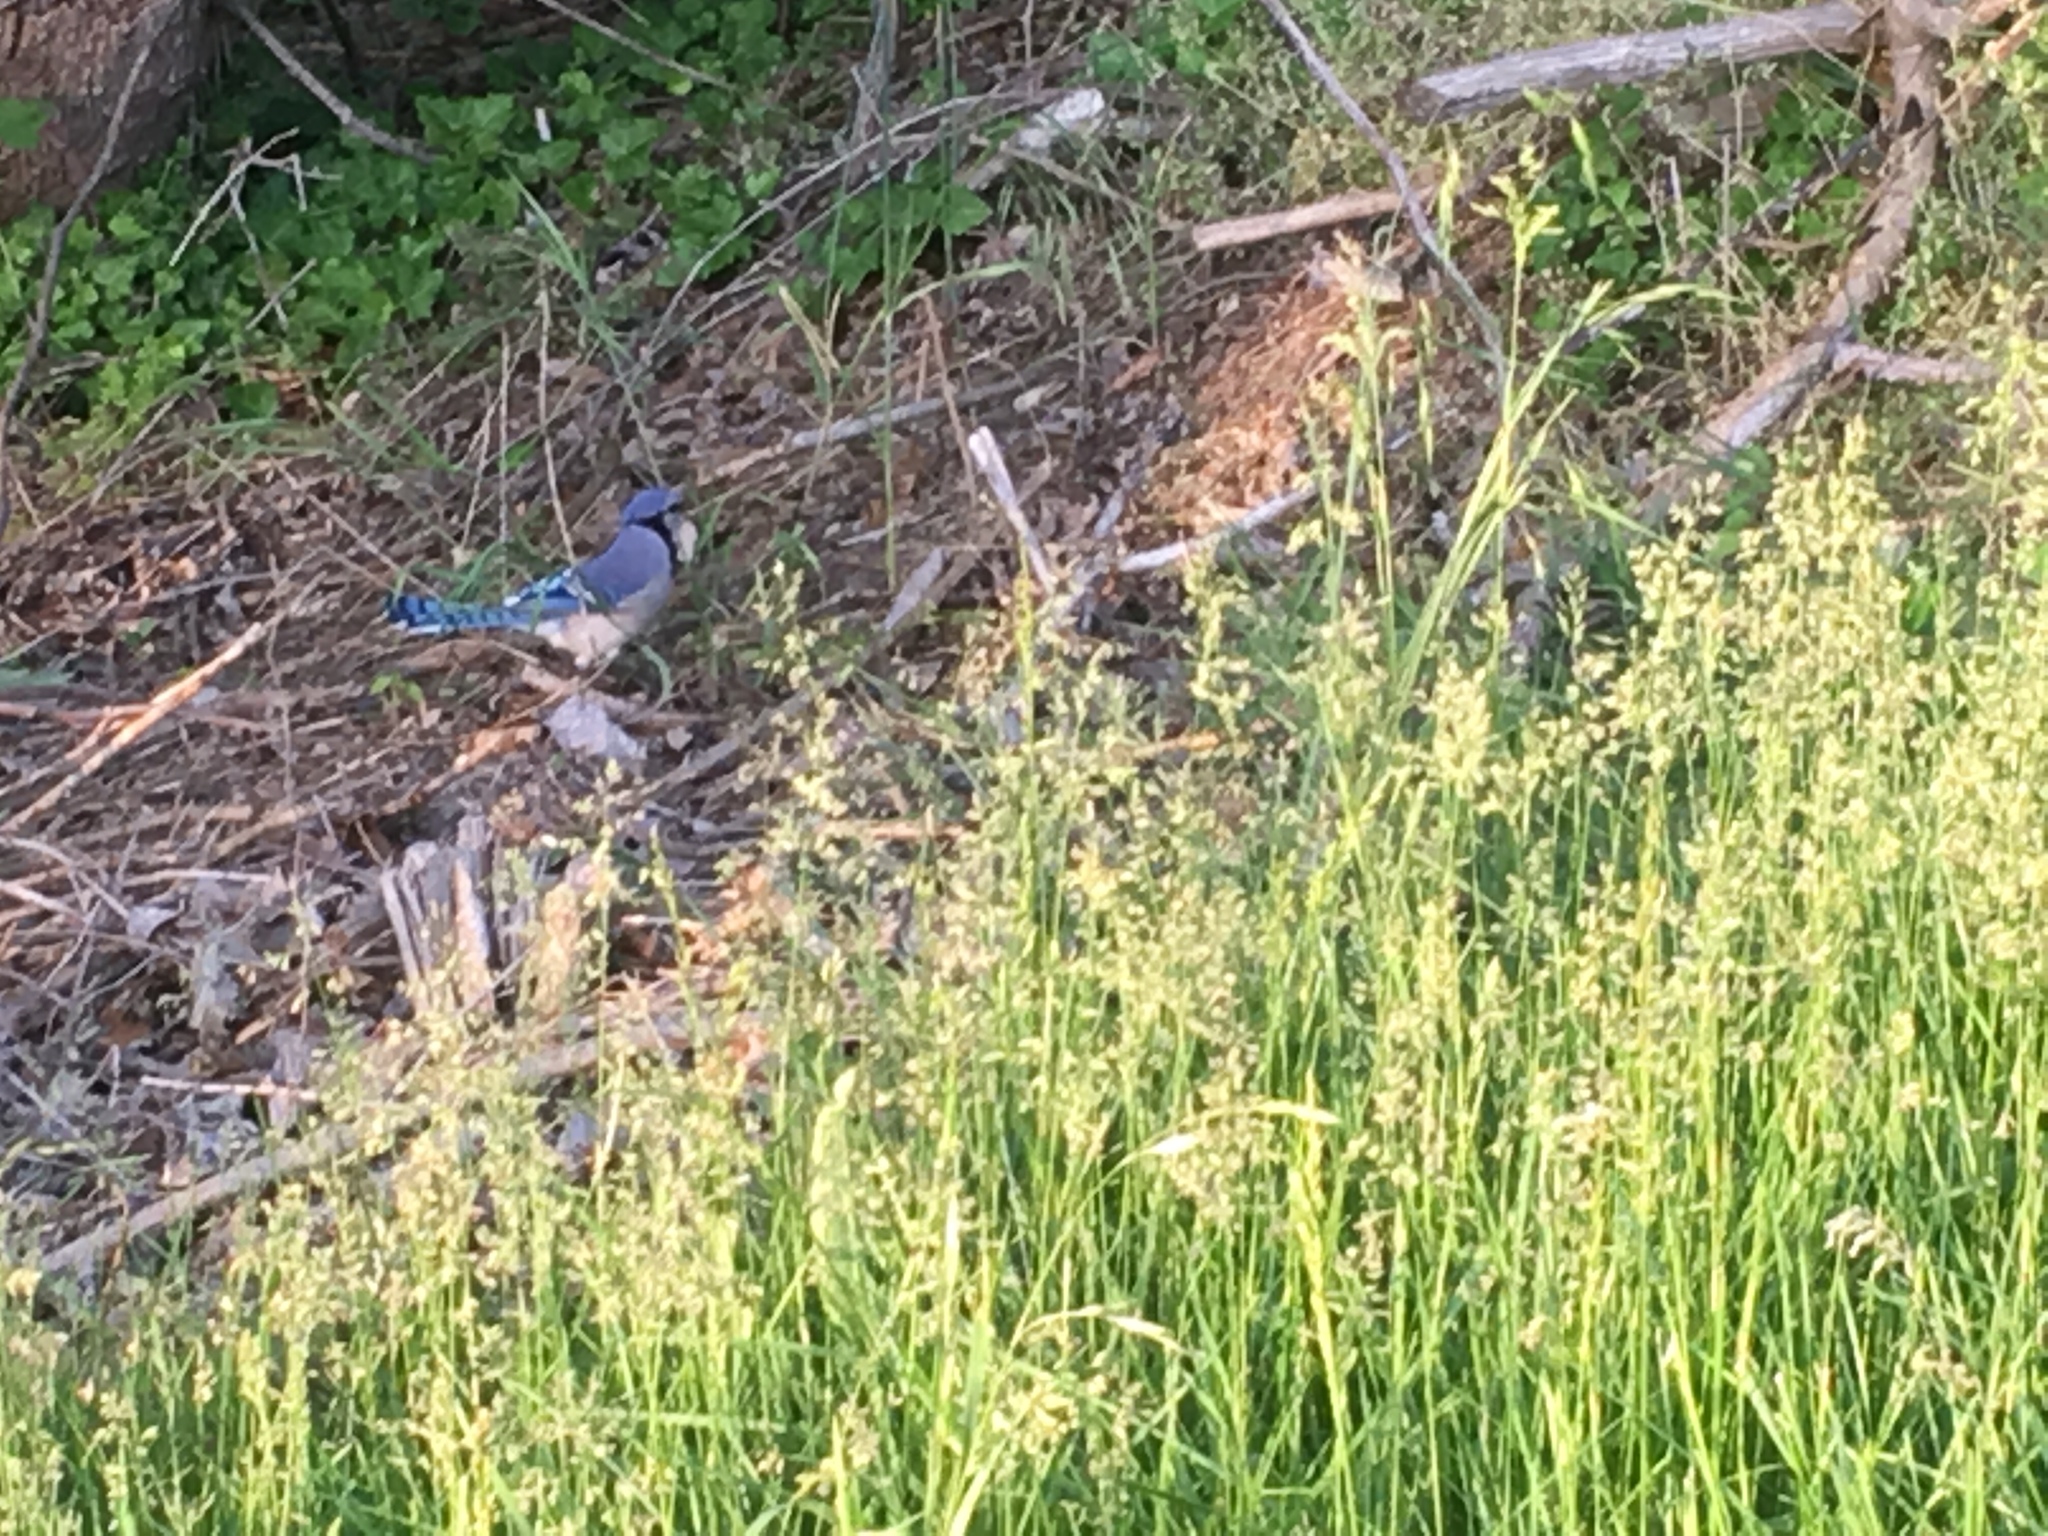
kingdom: Animalia
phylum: Chordata
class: Aves
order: Passeriformes
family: Corvidae
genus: Cyanocitta
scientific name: Cyanocitta cristata
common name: Blue jay
